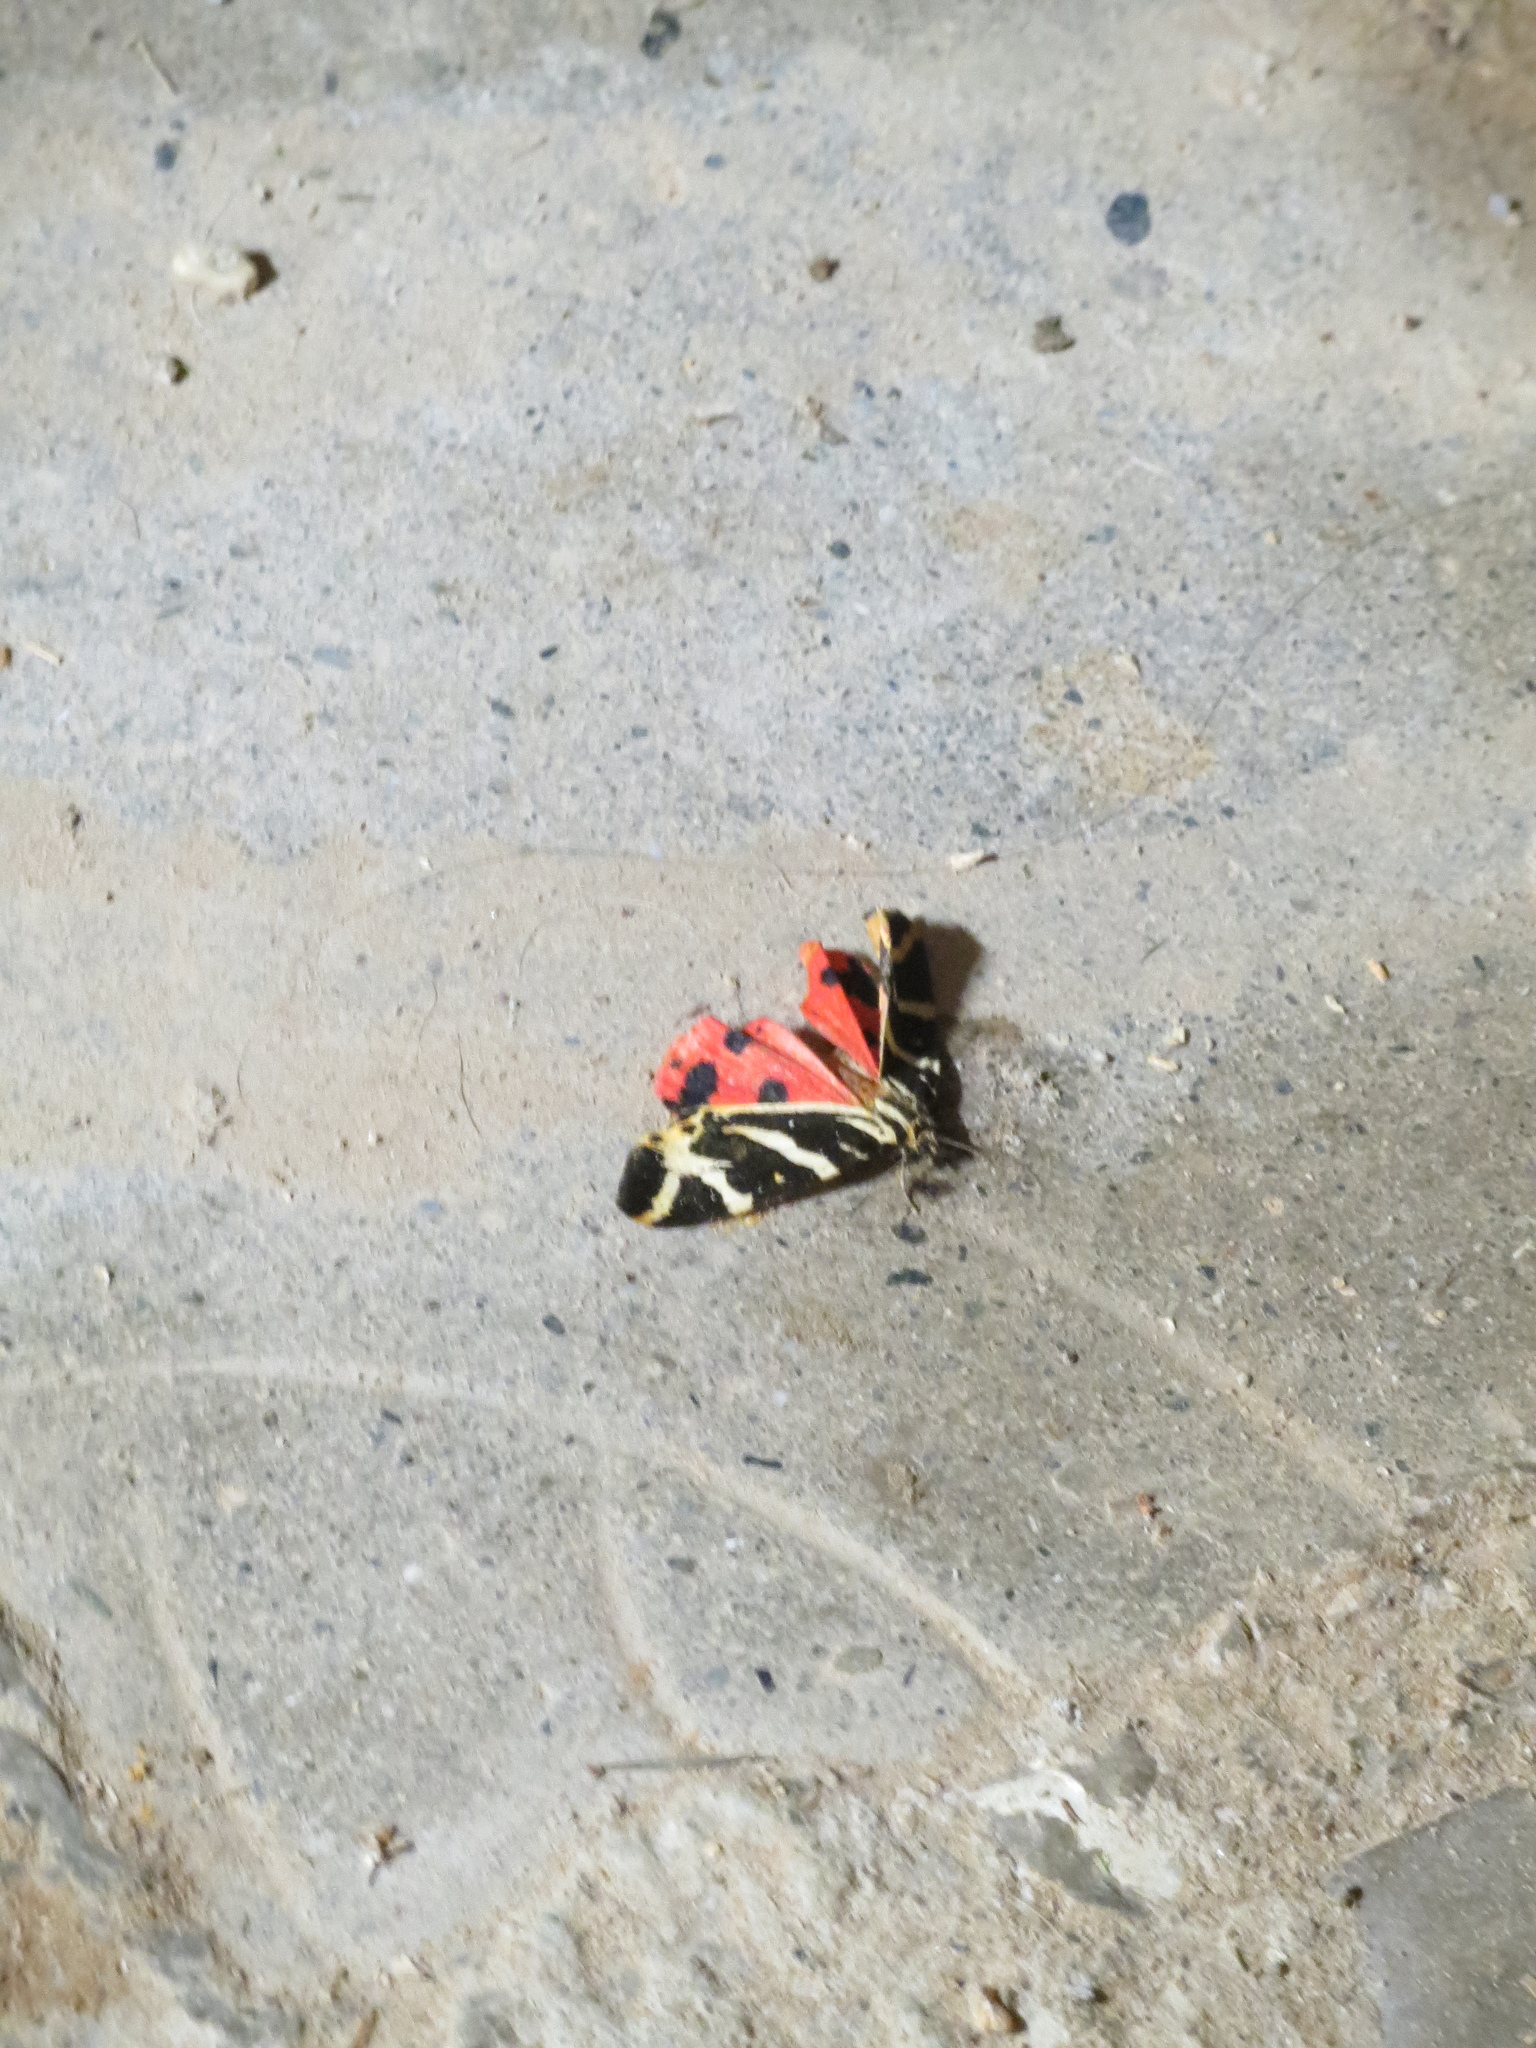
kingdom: Animalia
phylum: Arthropoda
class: Insecta
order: Lepidoptera
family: Erebidae
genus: Euplagia
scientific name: Euplagia quadripunctaria
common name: Jersey tiger
